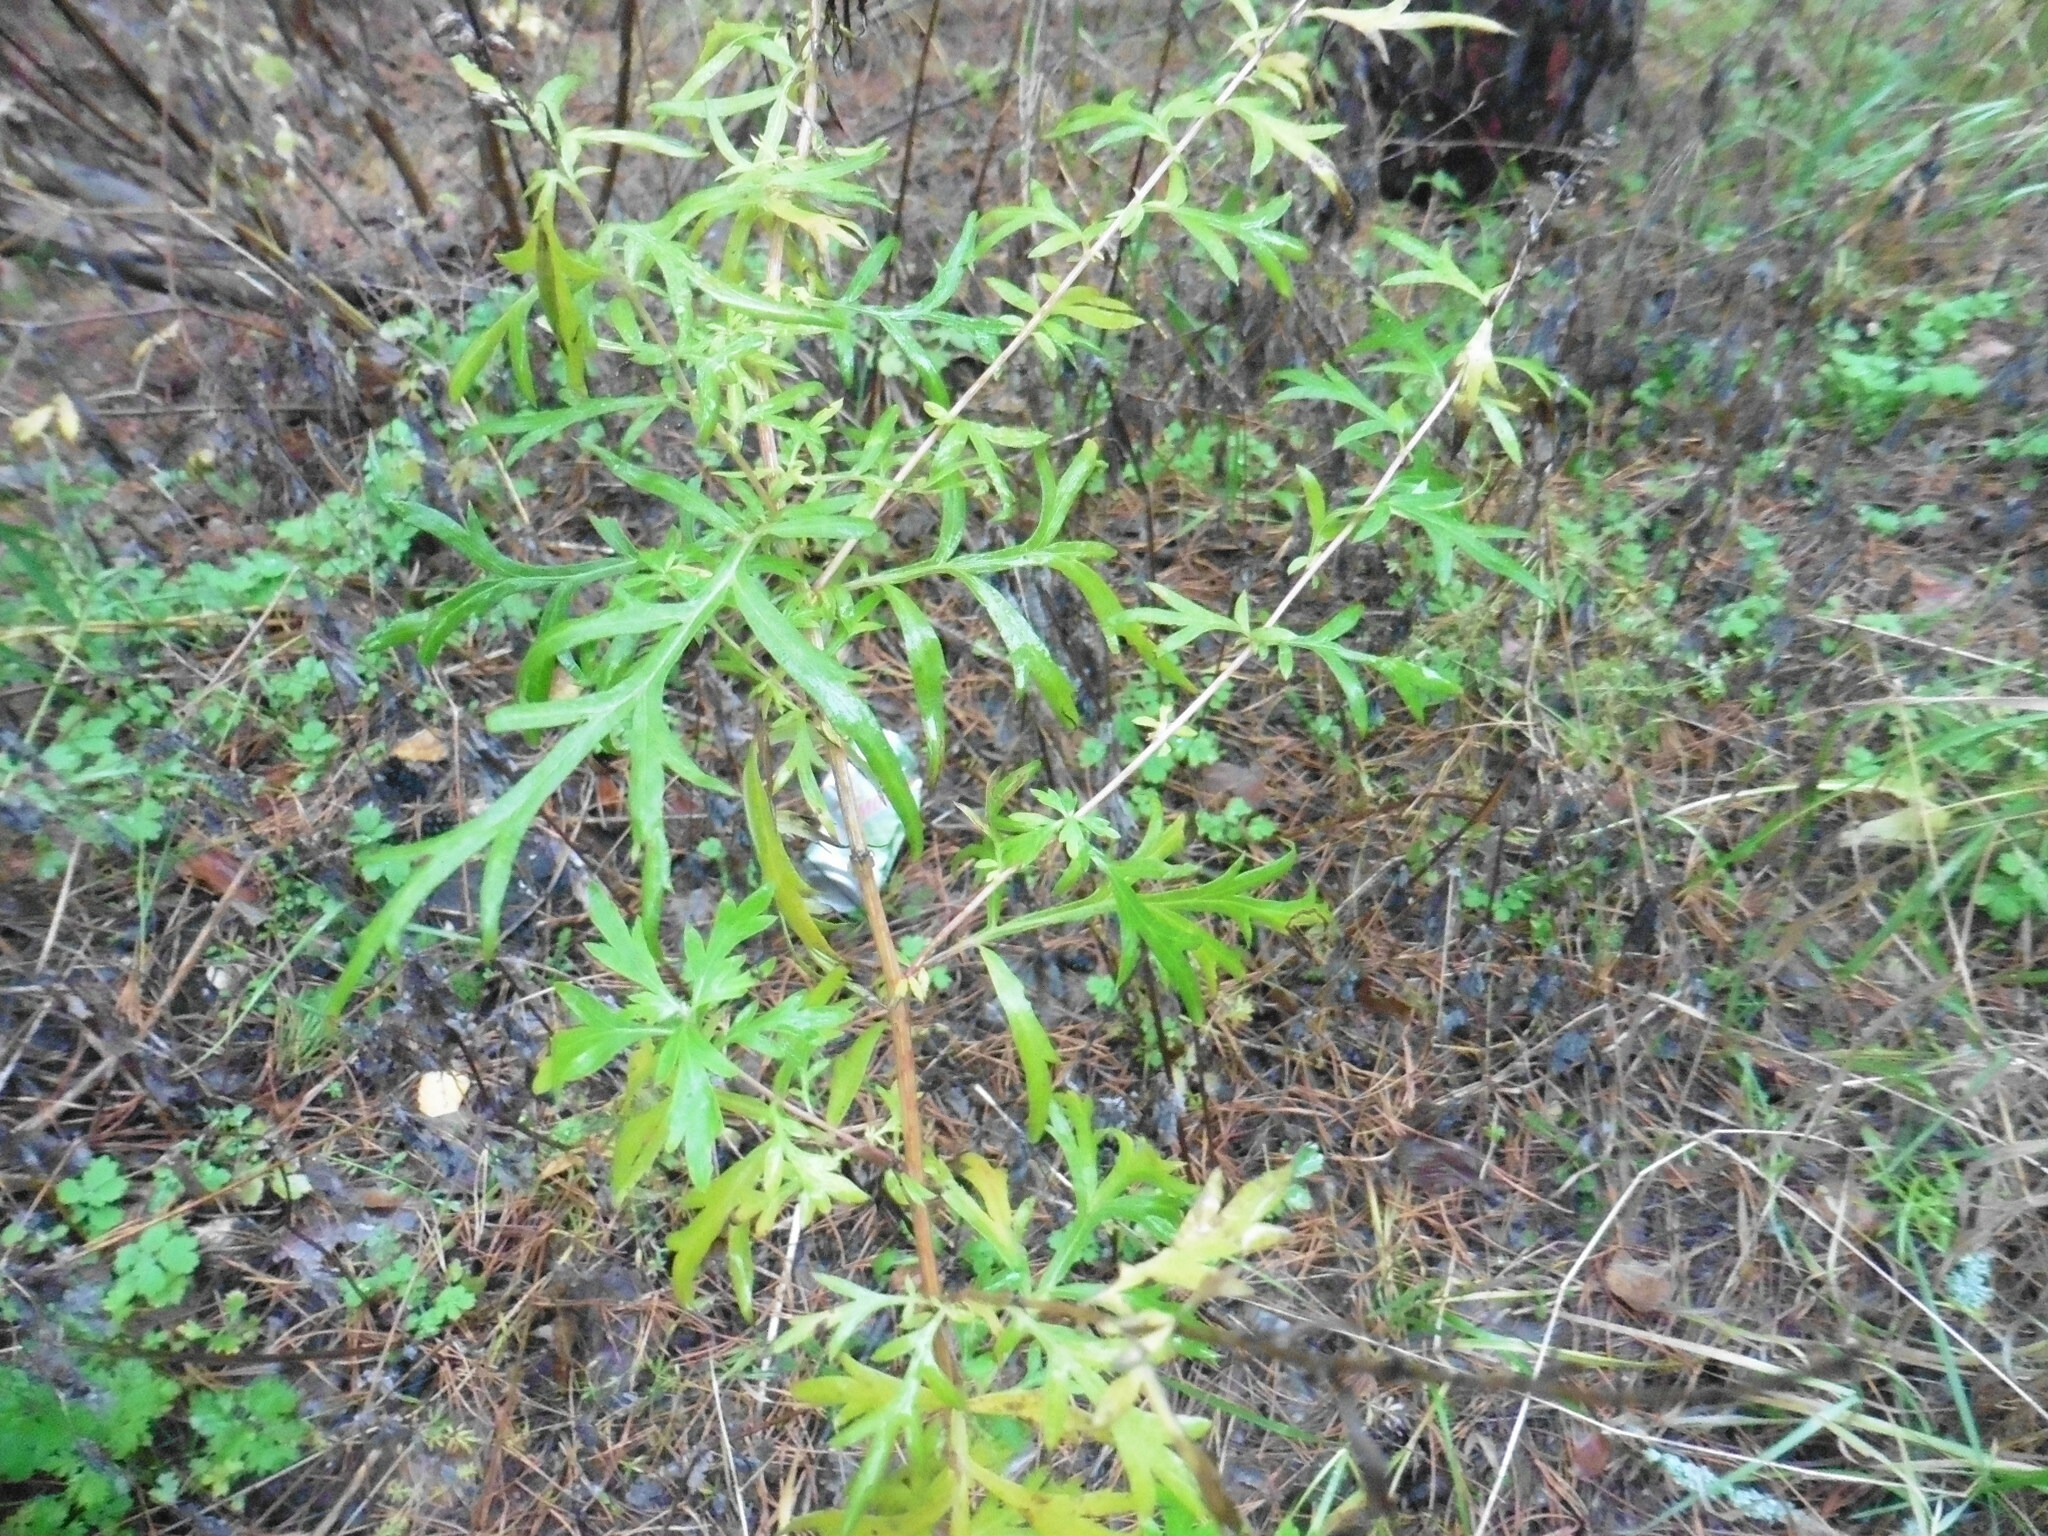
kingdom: Plantae
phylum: Tracheophyta
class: Magnoliopsida
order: Asterales
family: Asteraceae
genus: Artemisia
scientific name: Artemisia vulgaris
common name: Mugwort
